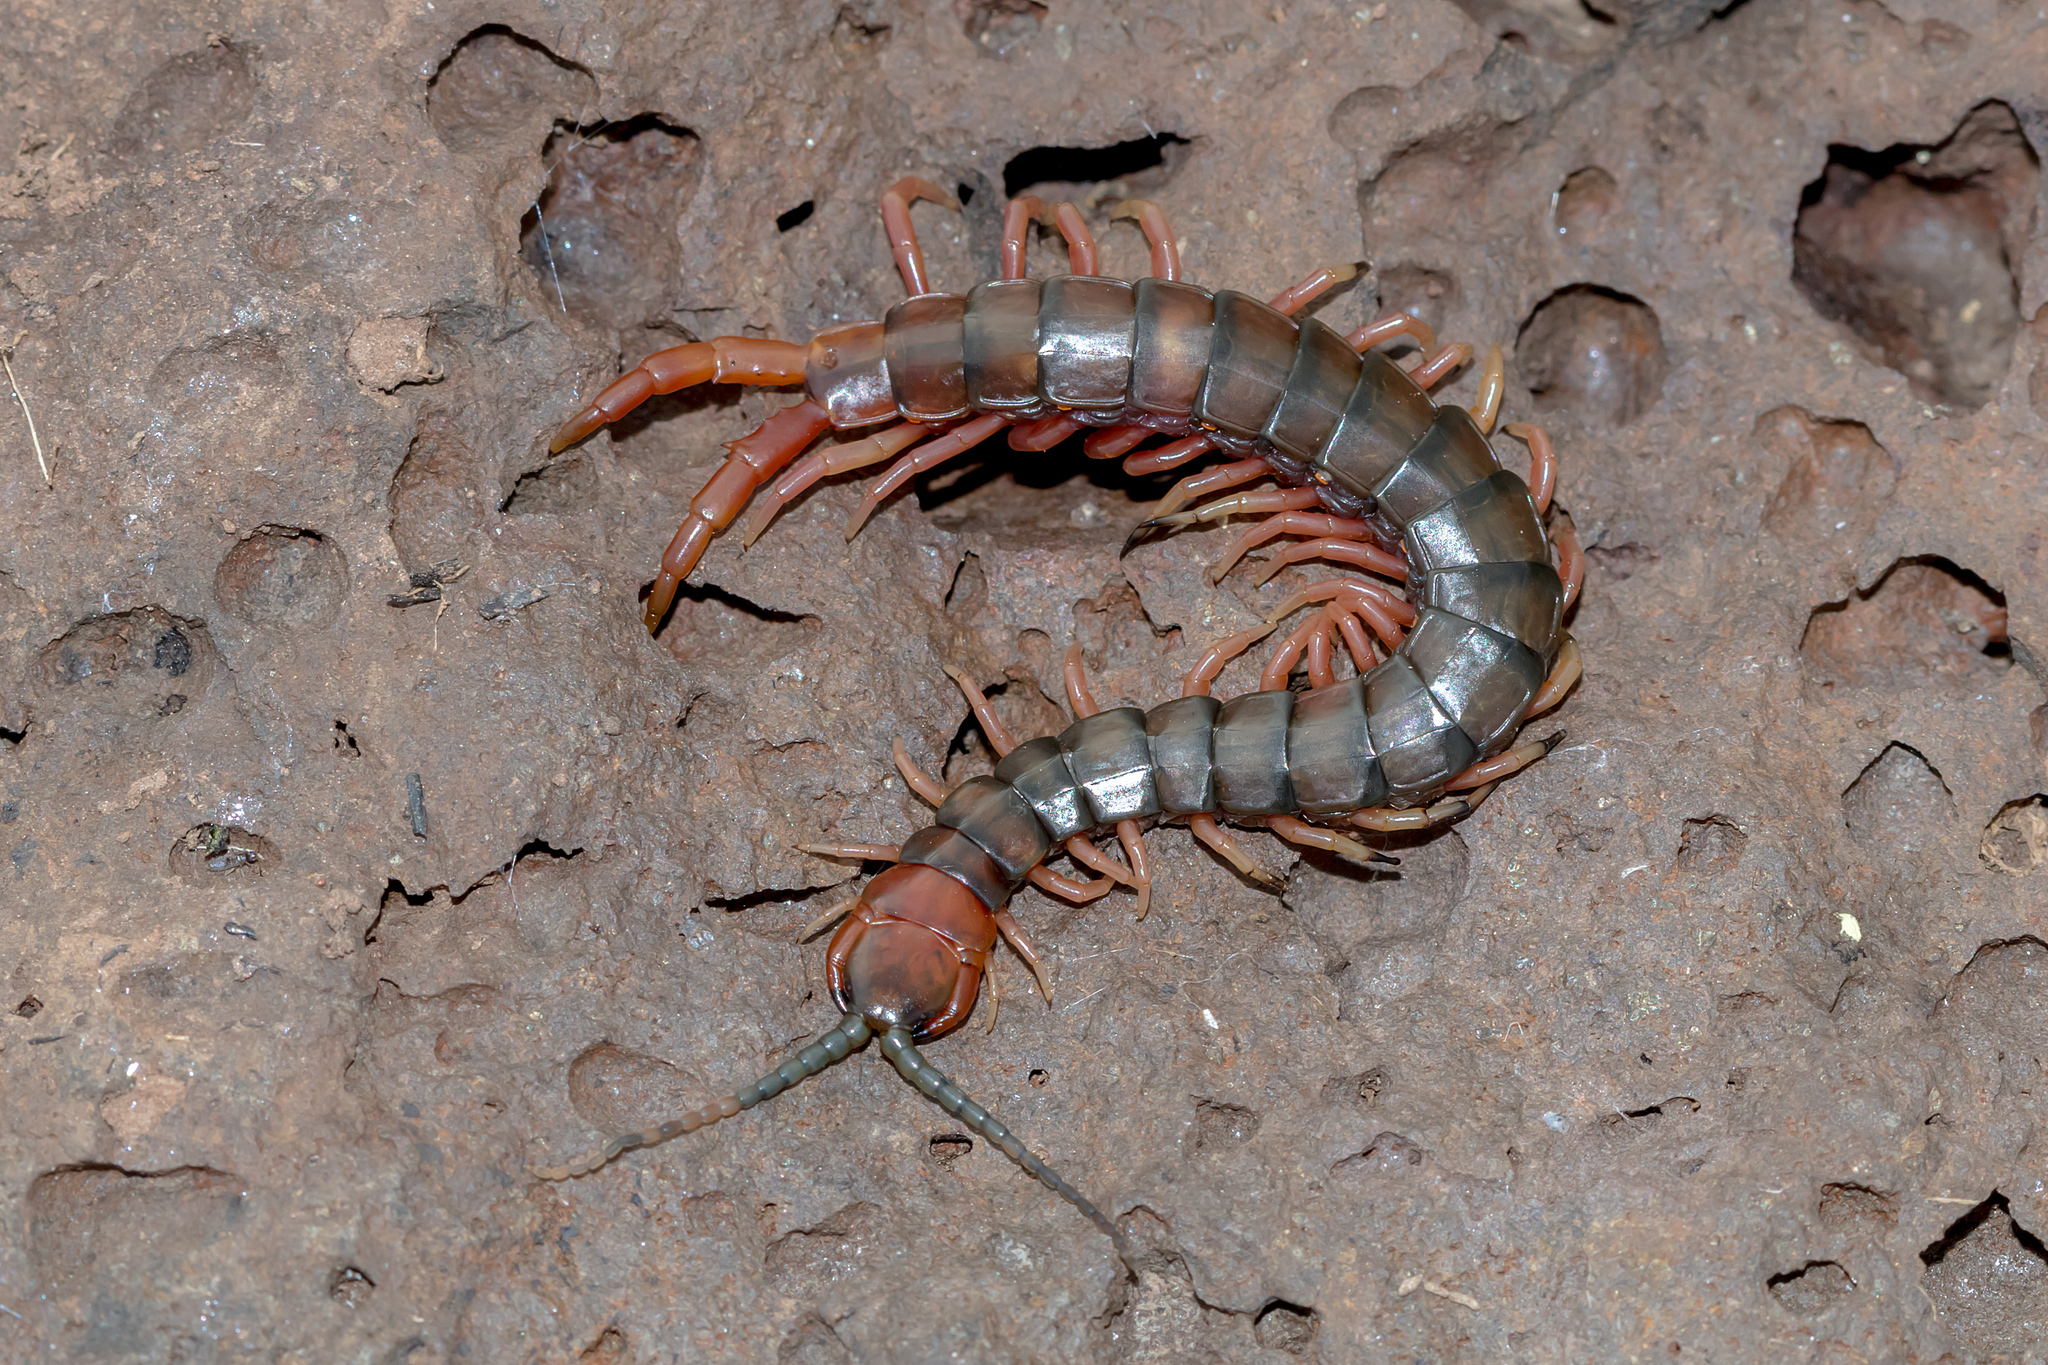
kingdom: Animalia
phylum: Arthropoda
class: Chilopoda
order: Scolopendromorpha
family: Scolopendridae
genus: Cormocephalus
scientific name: Cormocephalus aurantiipes
